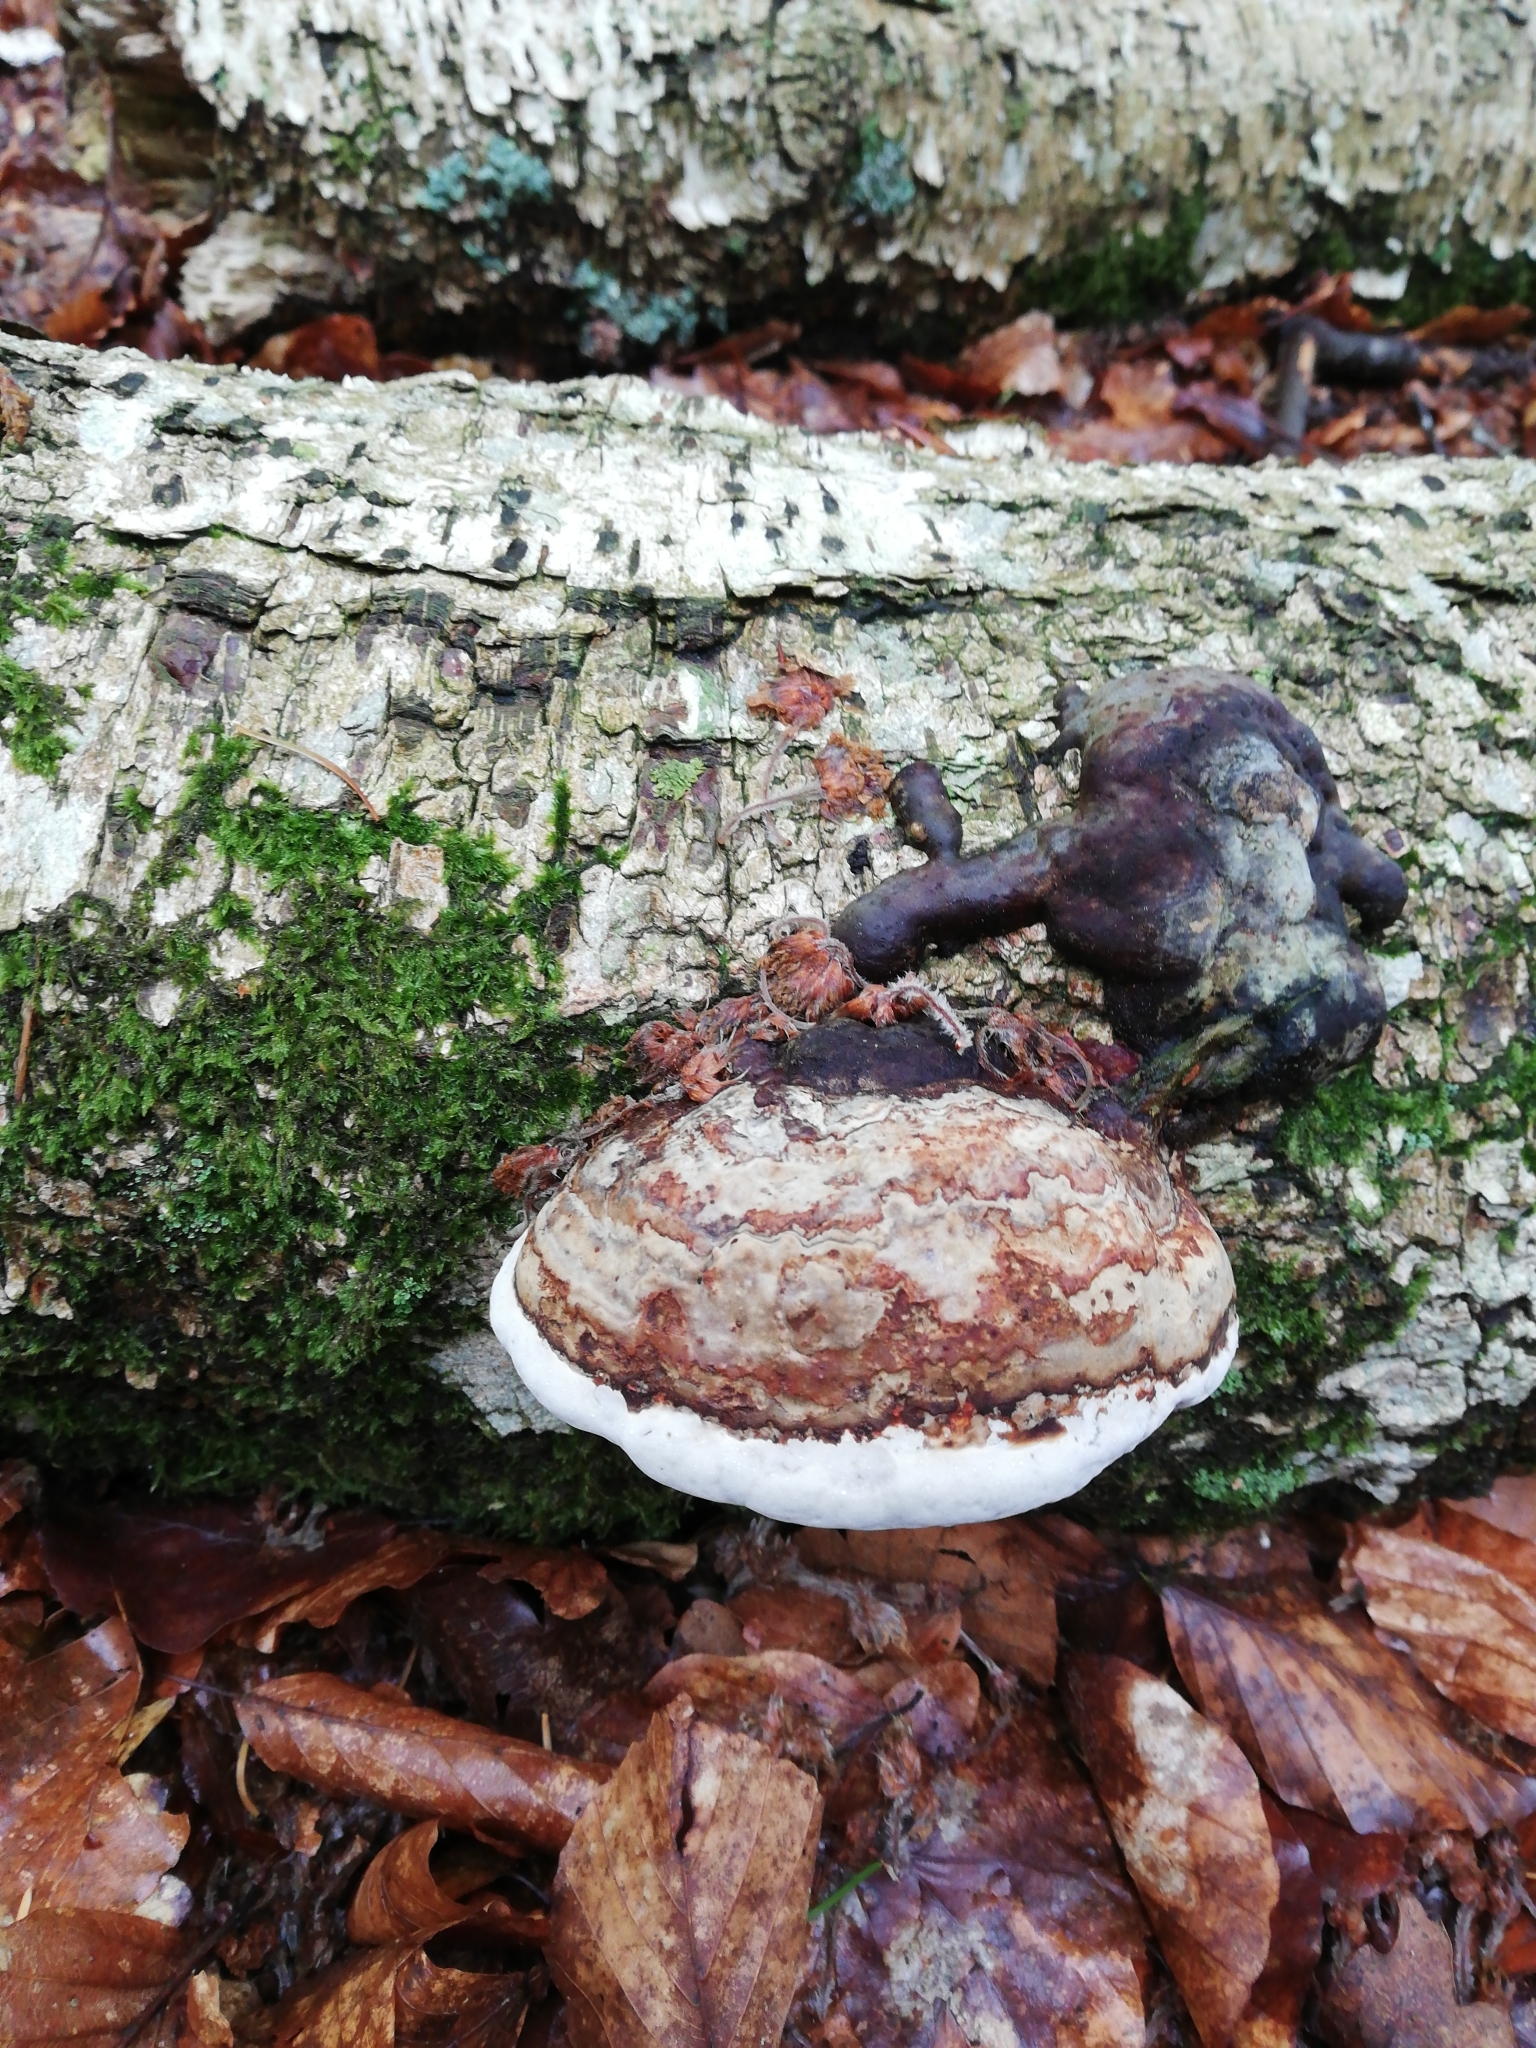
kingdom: Fungi
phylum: Basidiomycota
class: Agaricomycetes
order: Polyporales
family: Fomitopsidaceae
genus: Fomitopsis
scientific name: Fomitopsis betulina
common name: Birch polypore
